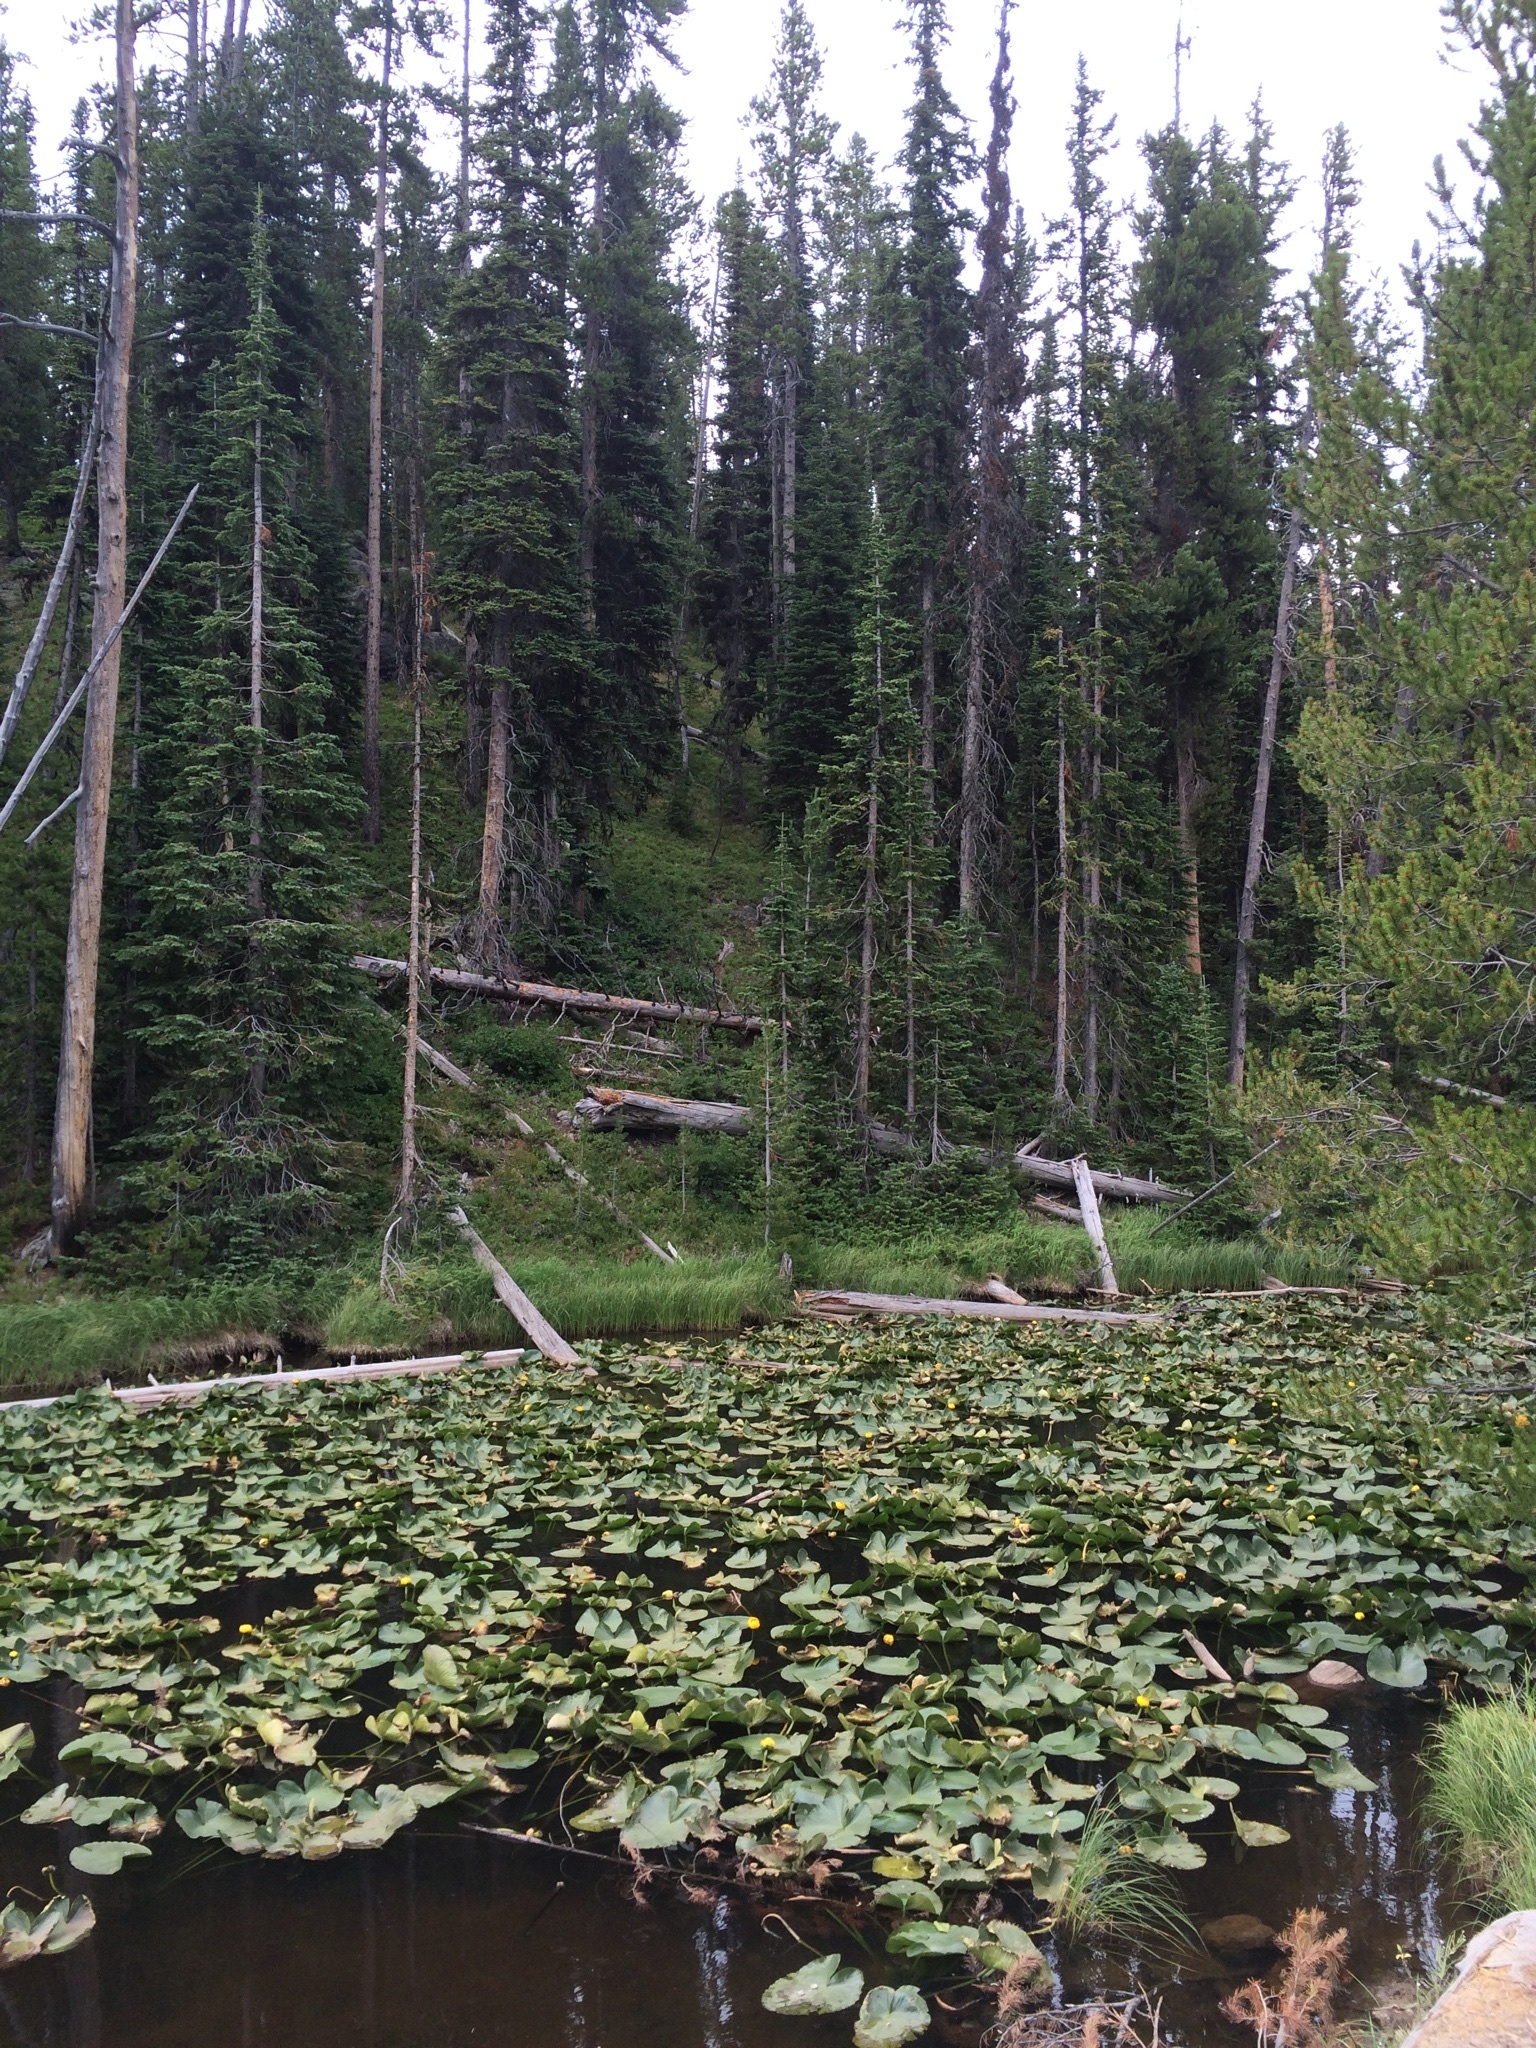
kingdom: Plantae
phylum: Tracheophyta
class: Magnoliopsida
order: Nymphaeales
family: Nymphaeaceae
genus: Nuphar
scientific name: Nuphar polysepala
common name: Rocky mountain cow-lily
